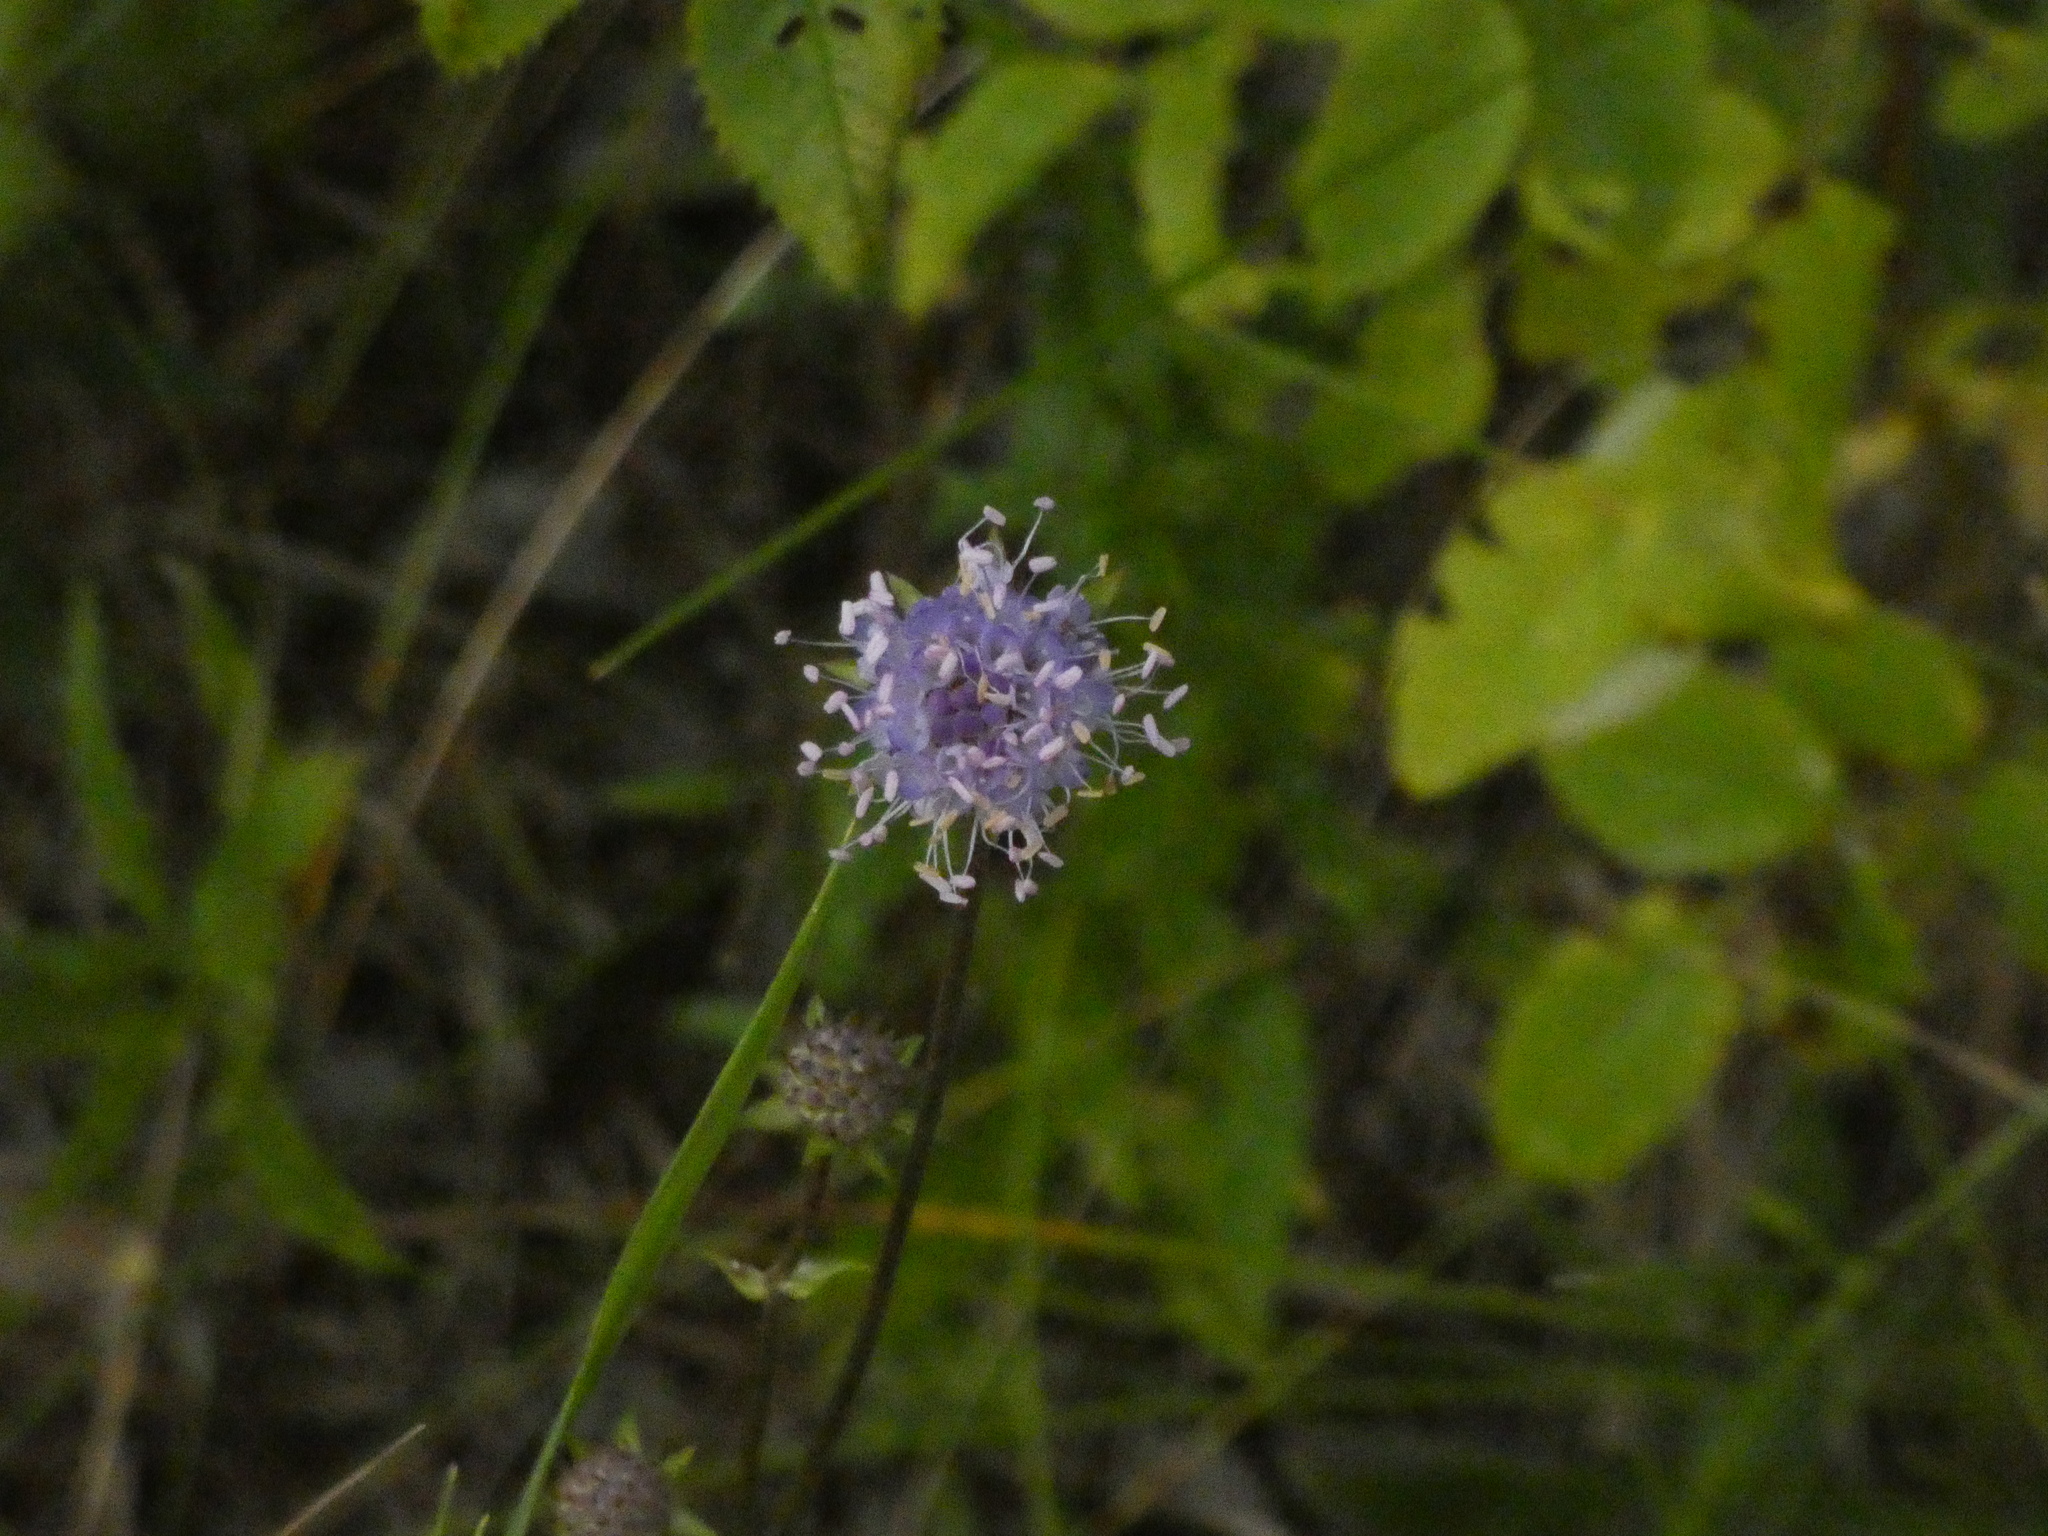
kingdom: Plantae
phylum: Tracheophyta
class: Magnoliopsida
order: Dipsacales
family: Caprifoliaceae
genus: Succisa
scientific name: Succisa pratensis
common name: Devil's-bit
